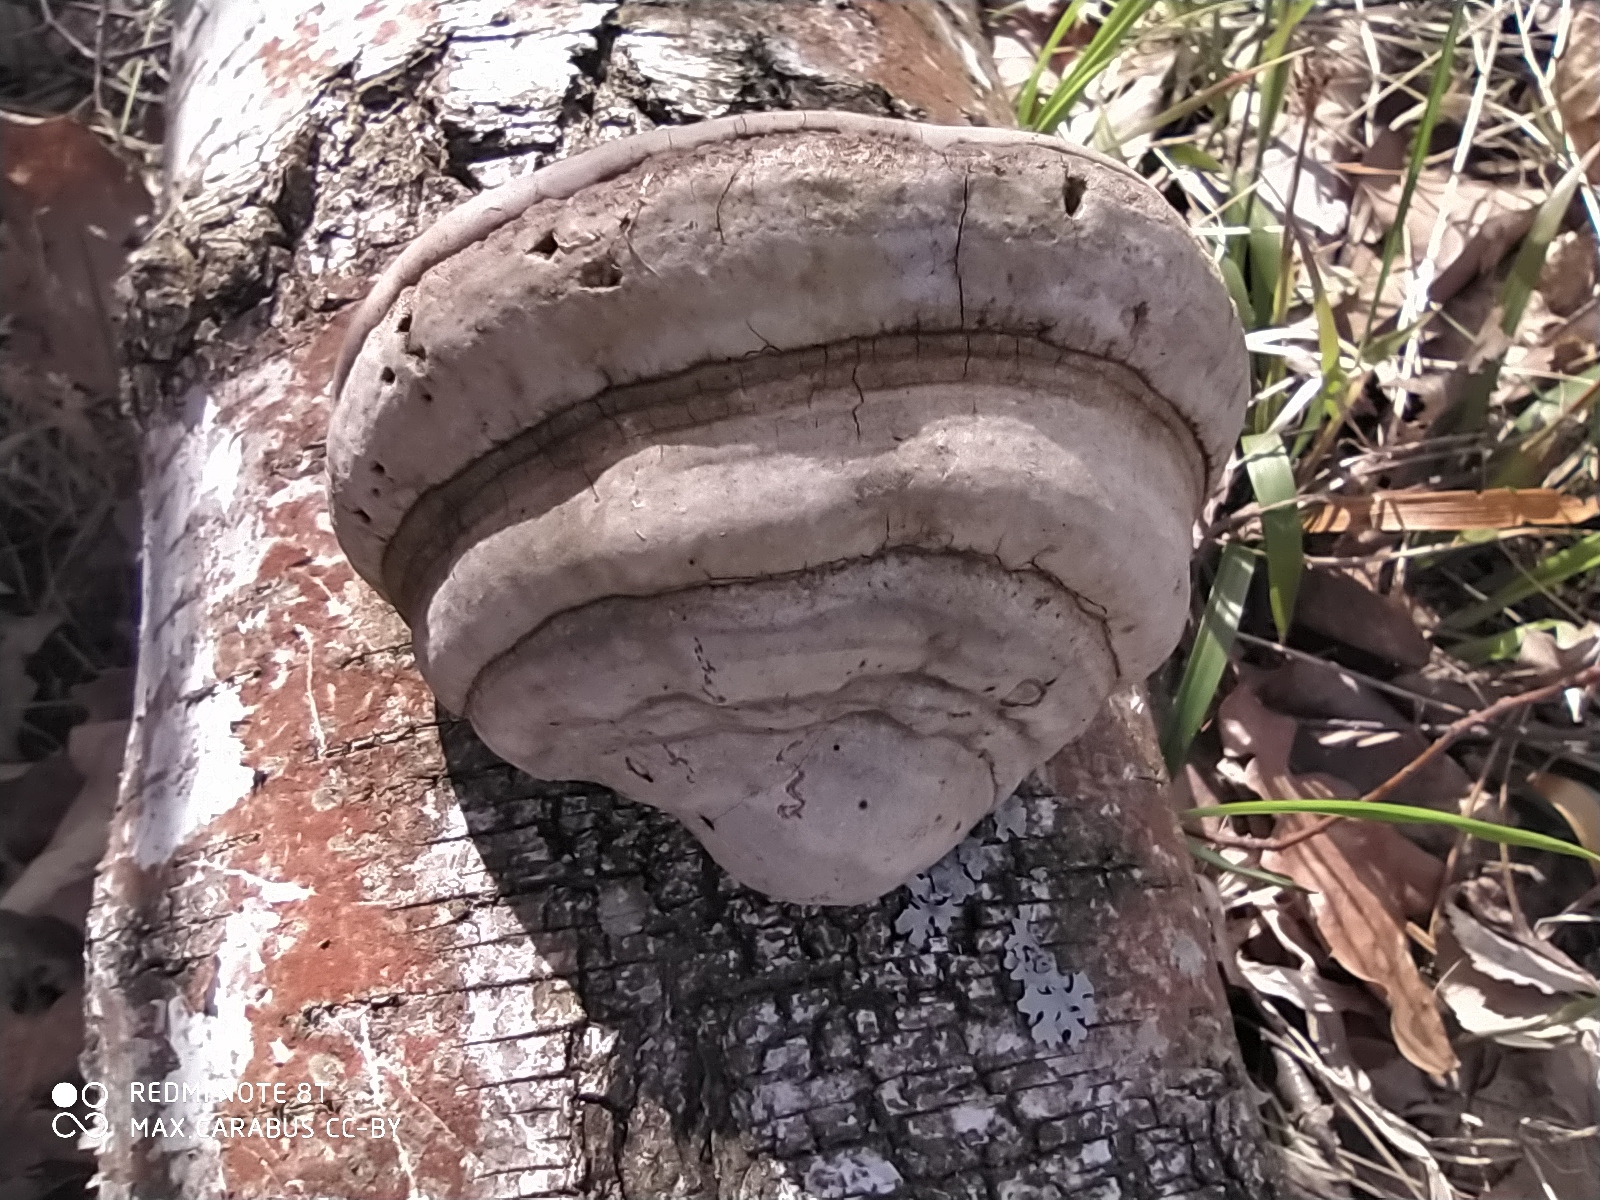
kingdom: Fungi
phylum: Basidiomycota
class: Agaricomycetes
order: Polyporales
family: Polyporaceae
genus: Fomes
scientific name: Fomes fomentarius
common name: Hoof fungus
